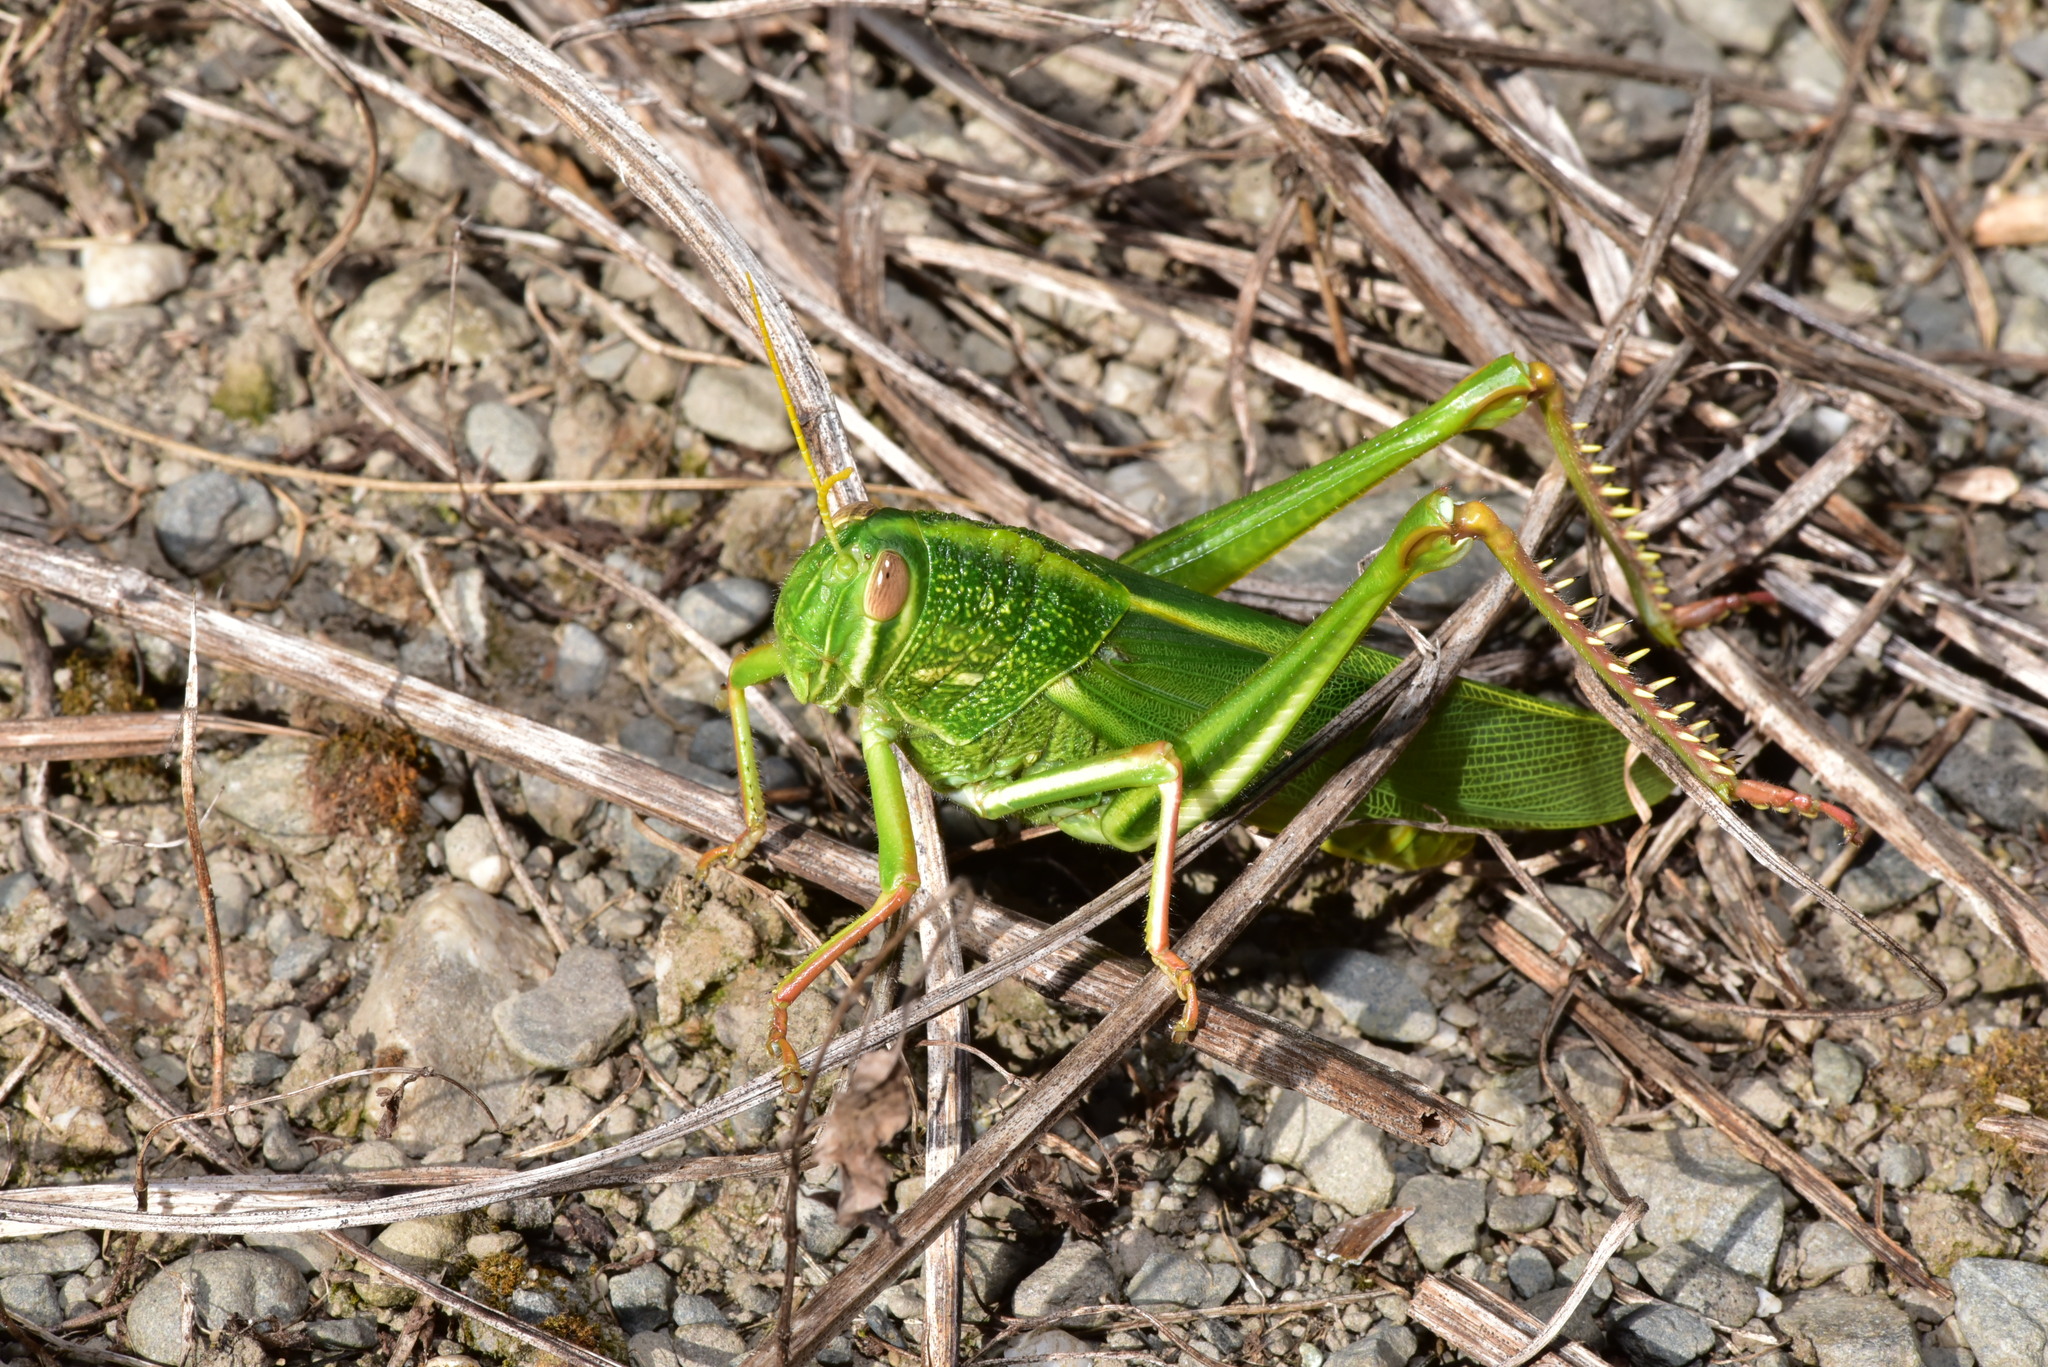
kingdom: Animalia
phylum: Arthropoda
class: Insecta
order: Orthoptera
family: Acrididae
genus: Chondracris
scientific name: Chondracris rosea
